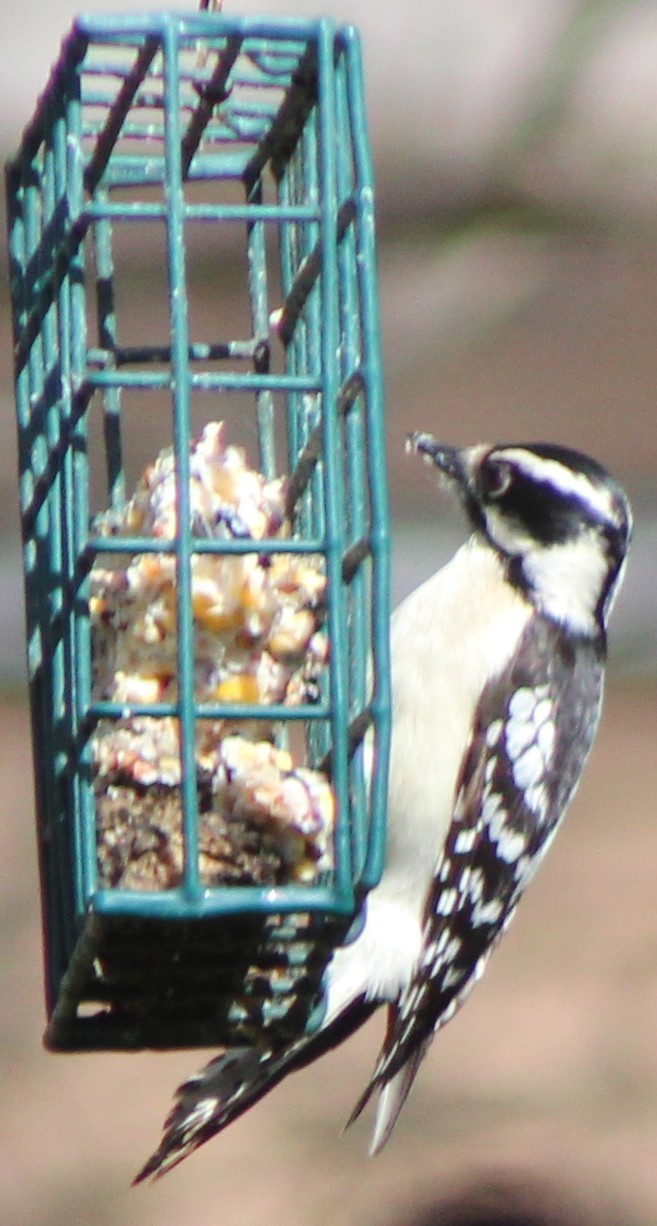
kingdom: Animalia
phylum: Chordata
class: Aves
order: Piciformes
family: Picidae
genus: Dryobates
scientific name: Dryobates pubescens
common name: Downy woodpecker
